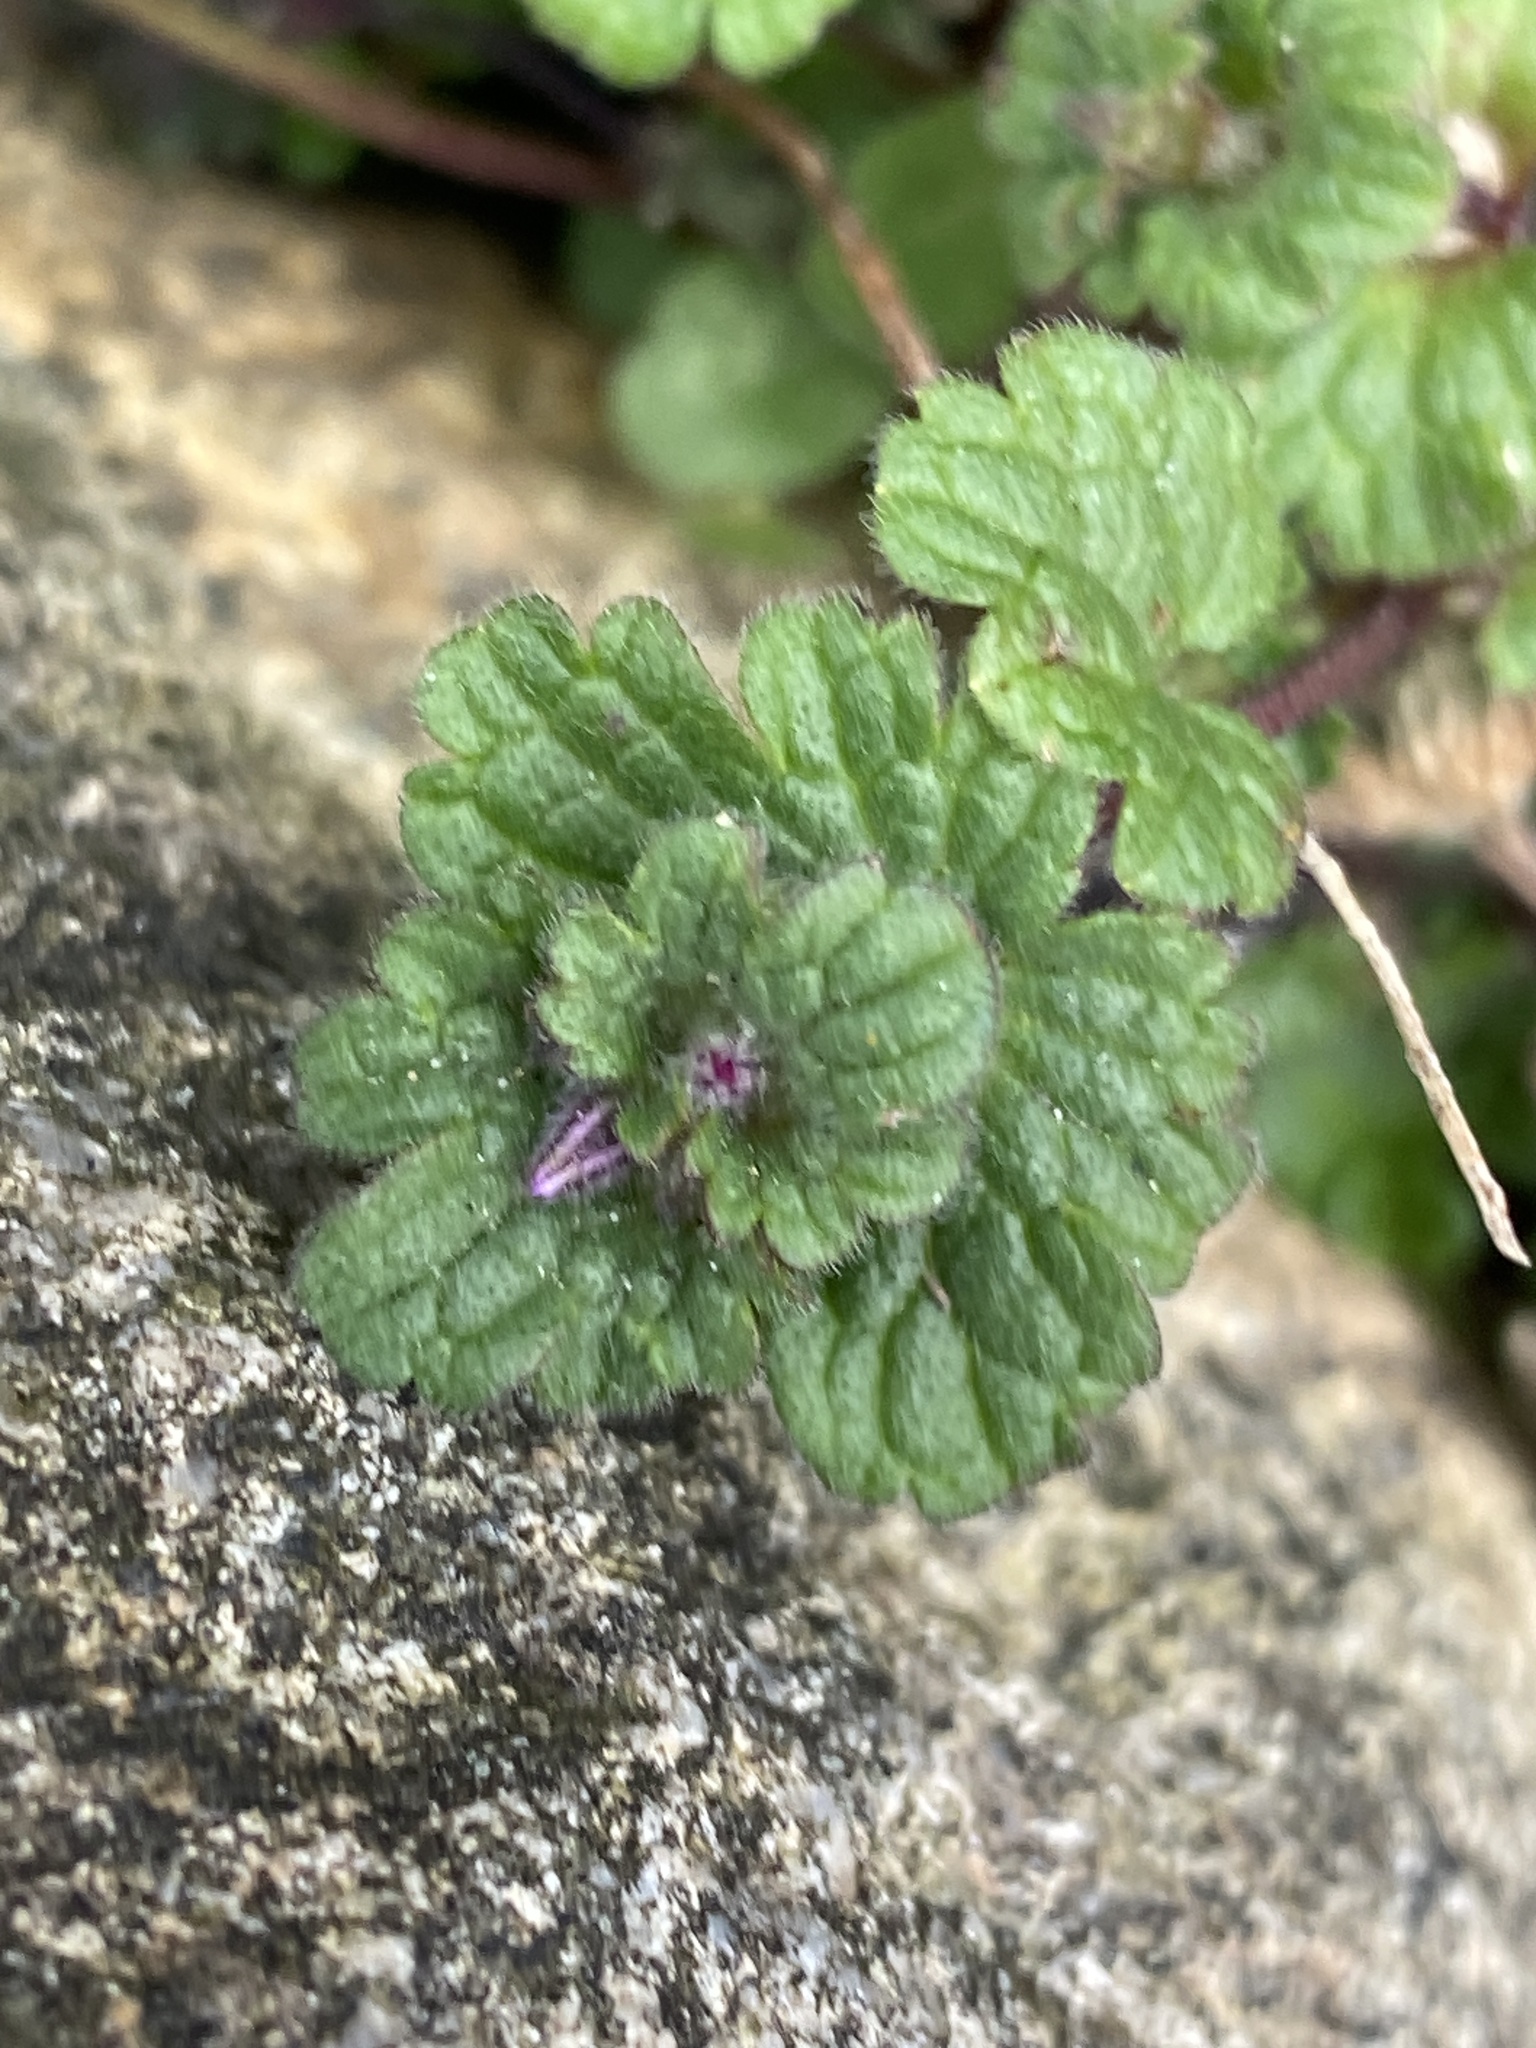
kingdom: Plantae
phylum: Tracheophyta
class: Magnoliopsida
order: Lamiales
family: Lamiaceae
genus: Lamium
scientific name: Lamium amplexicaule
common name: Henbit dead-nettle
